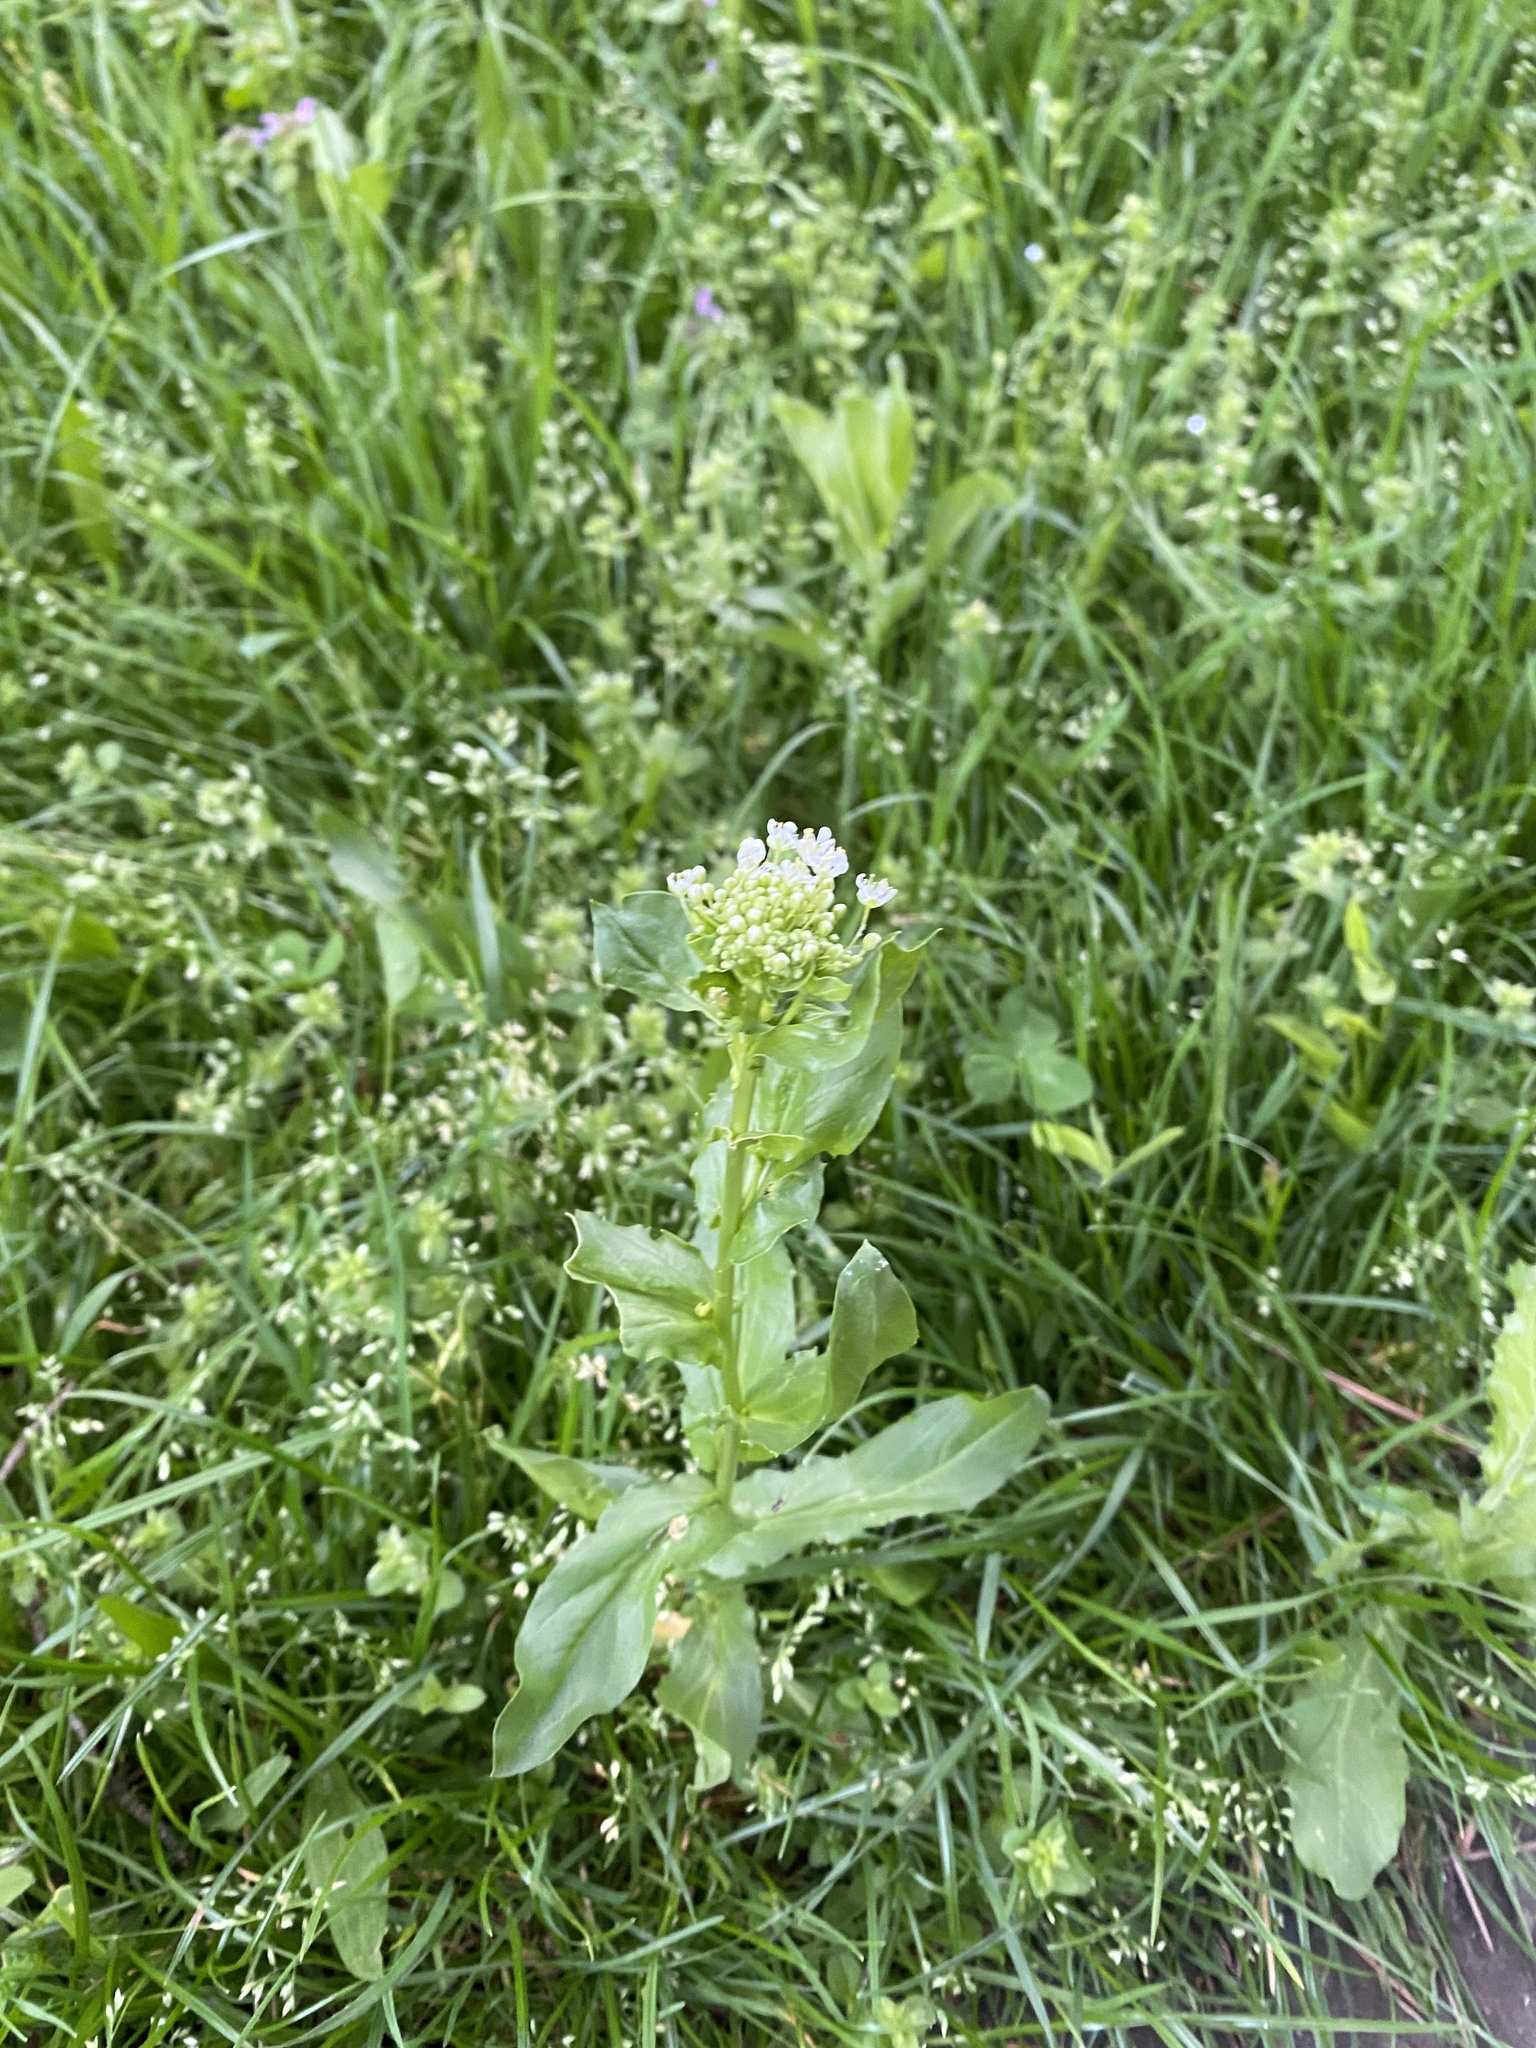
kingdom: Plantae
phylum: Tracheophyta
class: Magnoliopsida
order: Brassicales
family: Brassicaceae
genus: Thlaspi
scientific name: Thlaspi arvense
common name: Field pennycress
